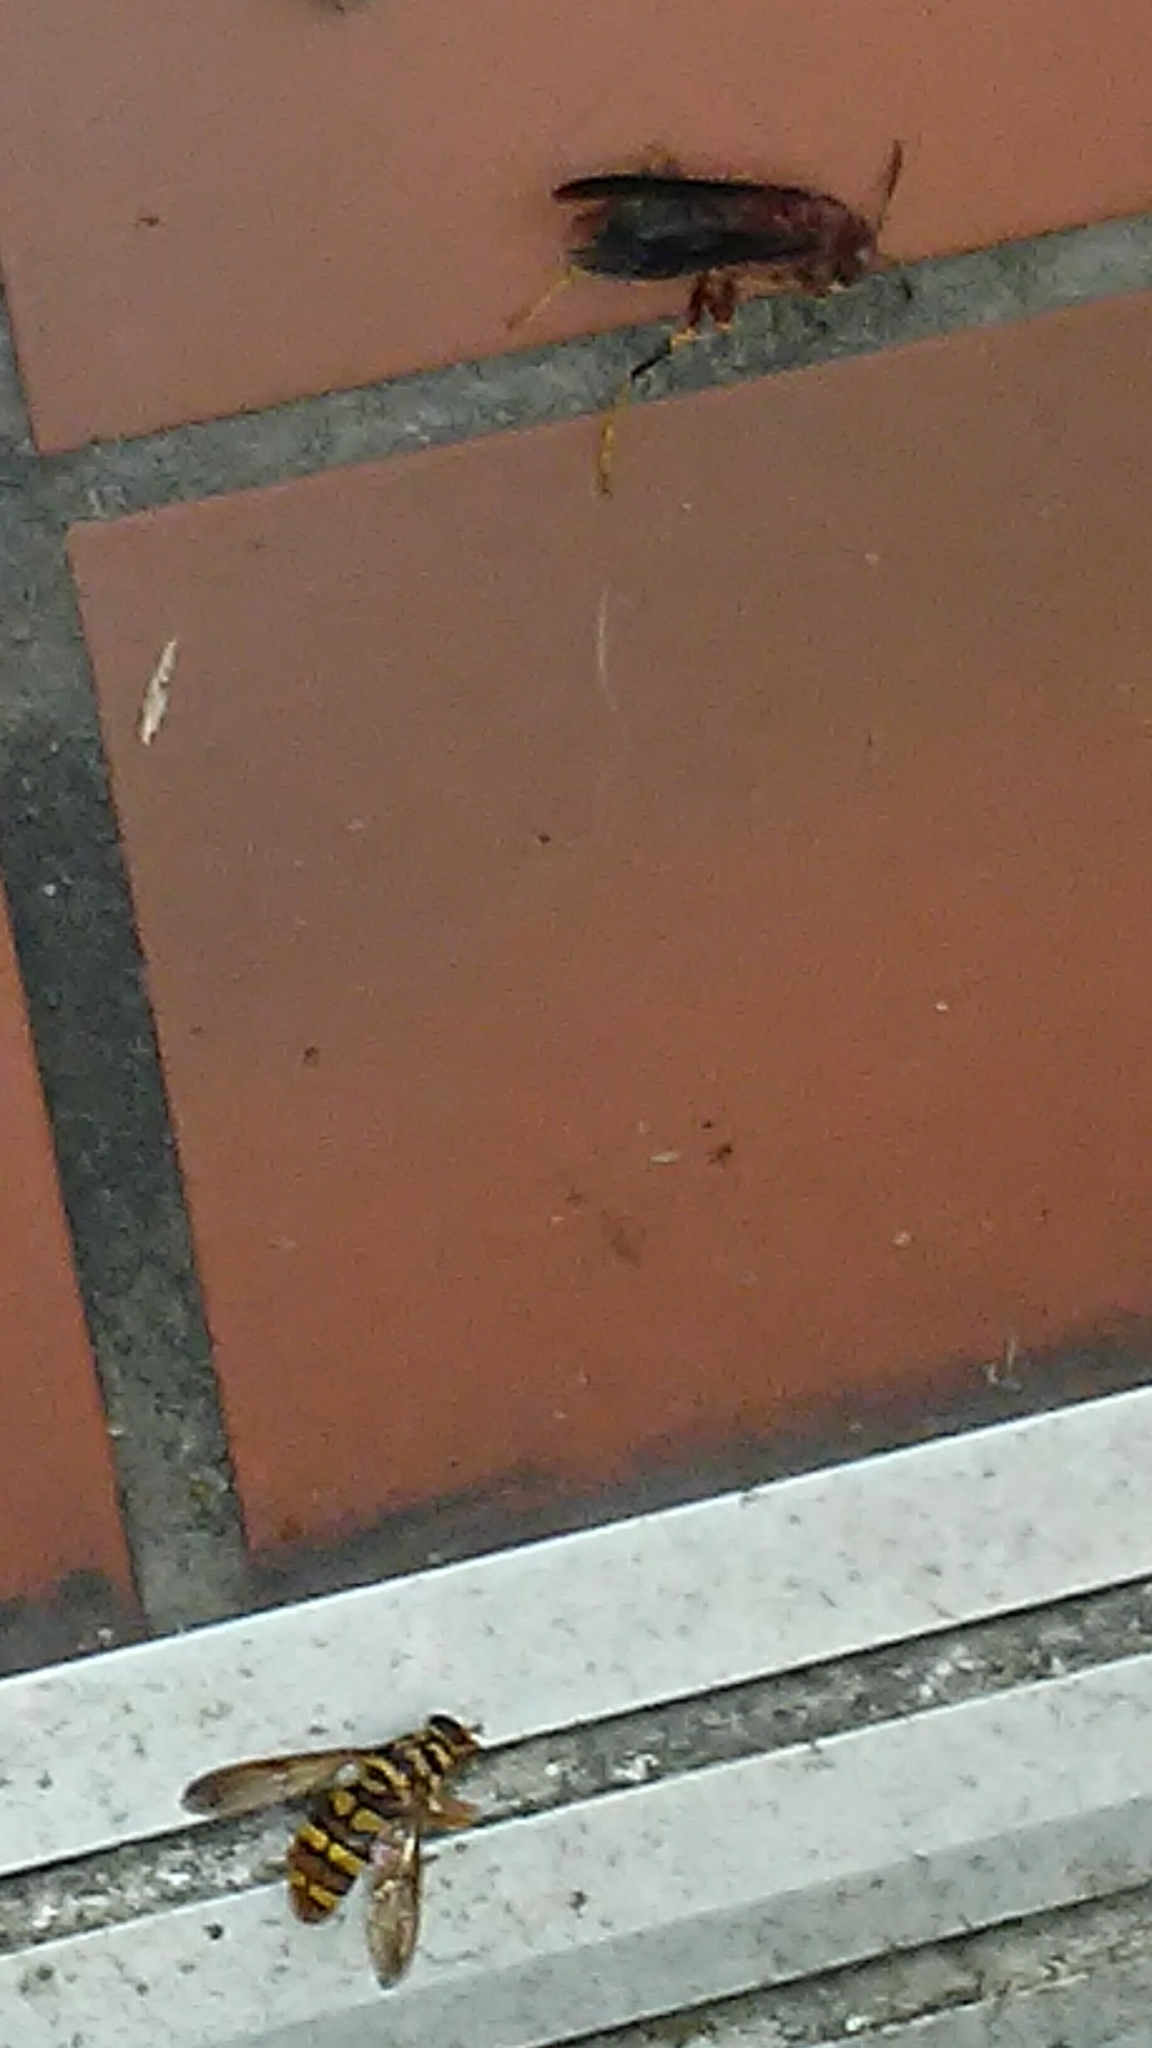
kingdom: Animalia
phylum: Arthropoda
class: Insecta
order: Diptera
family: Syrphidae
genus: Milesia
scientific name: Milesia virginiensis
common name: Virginia giant
